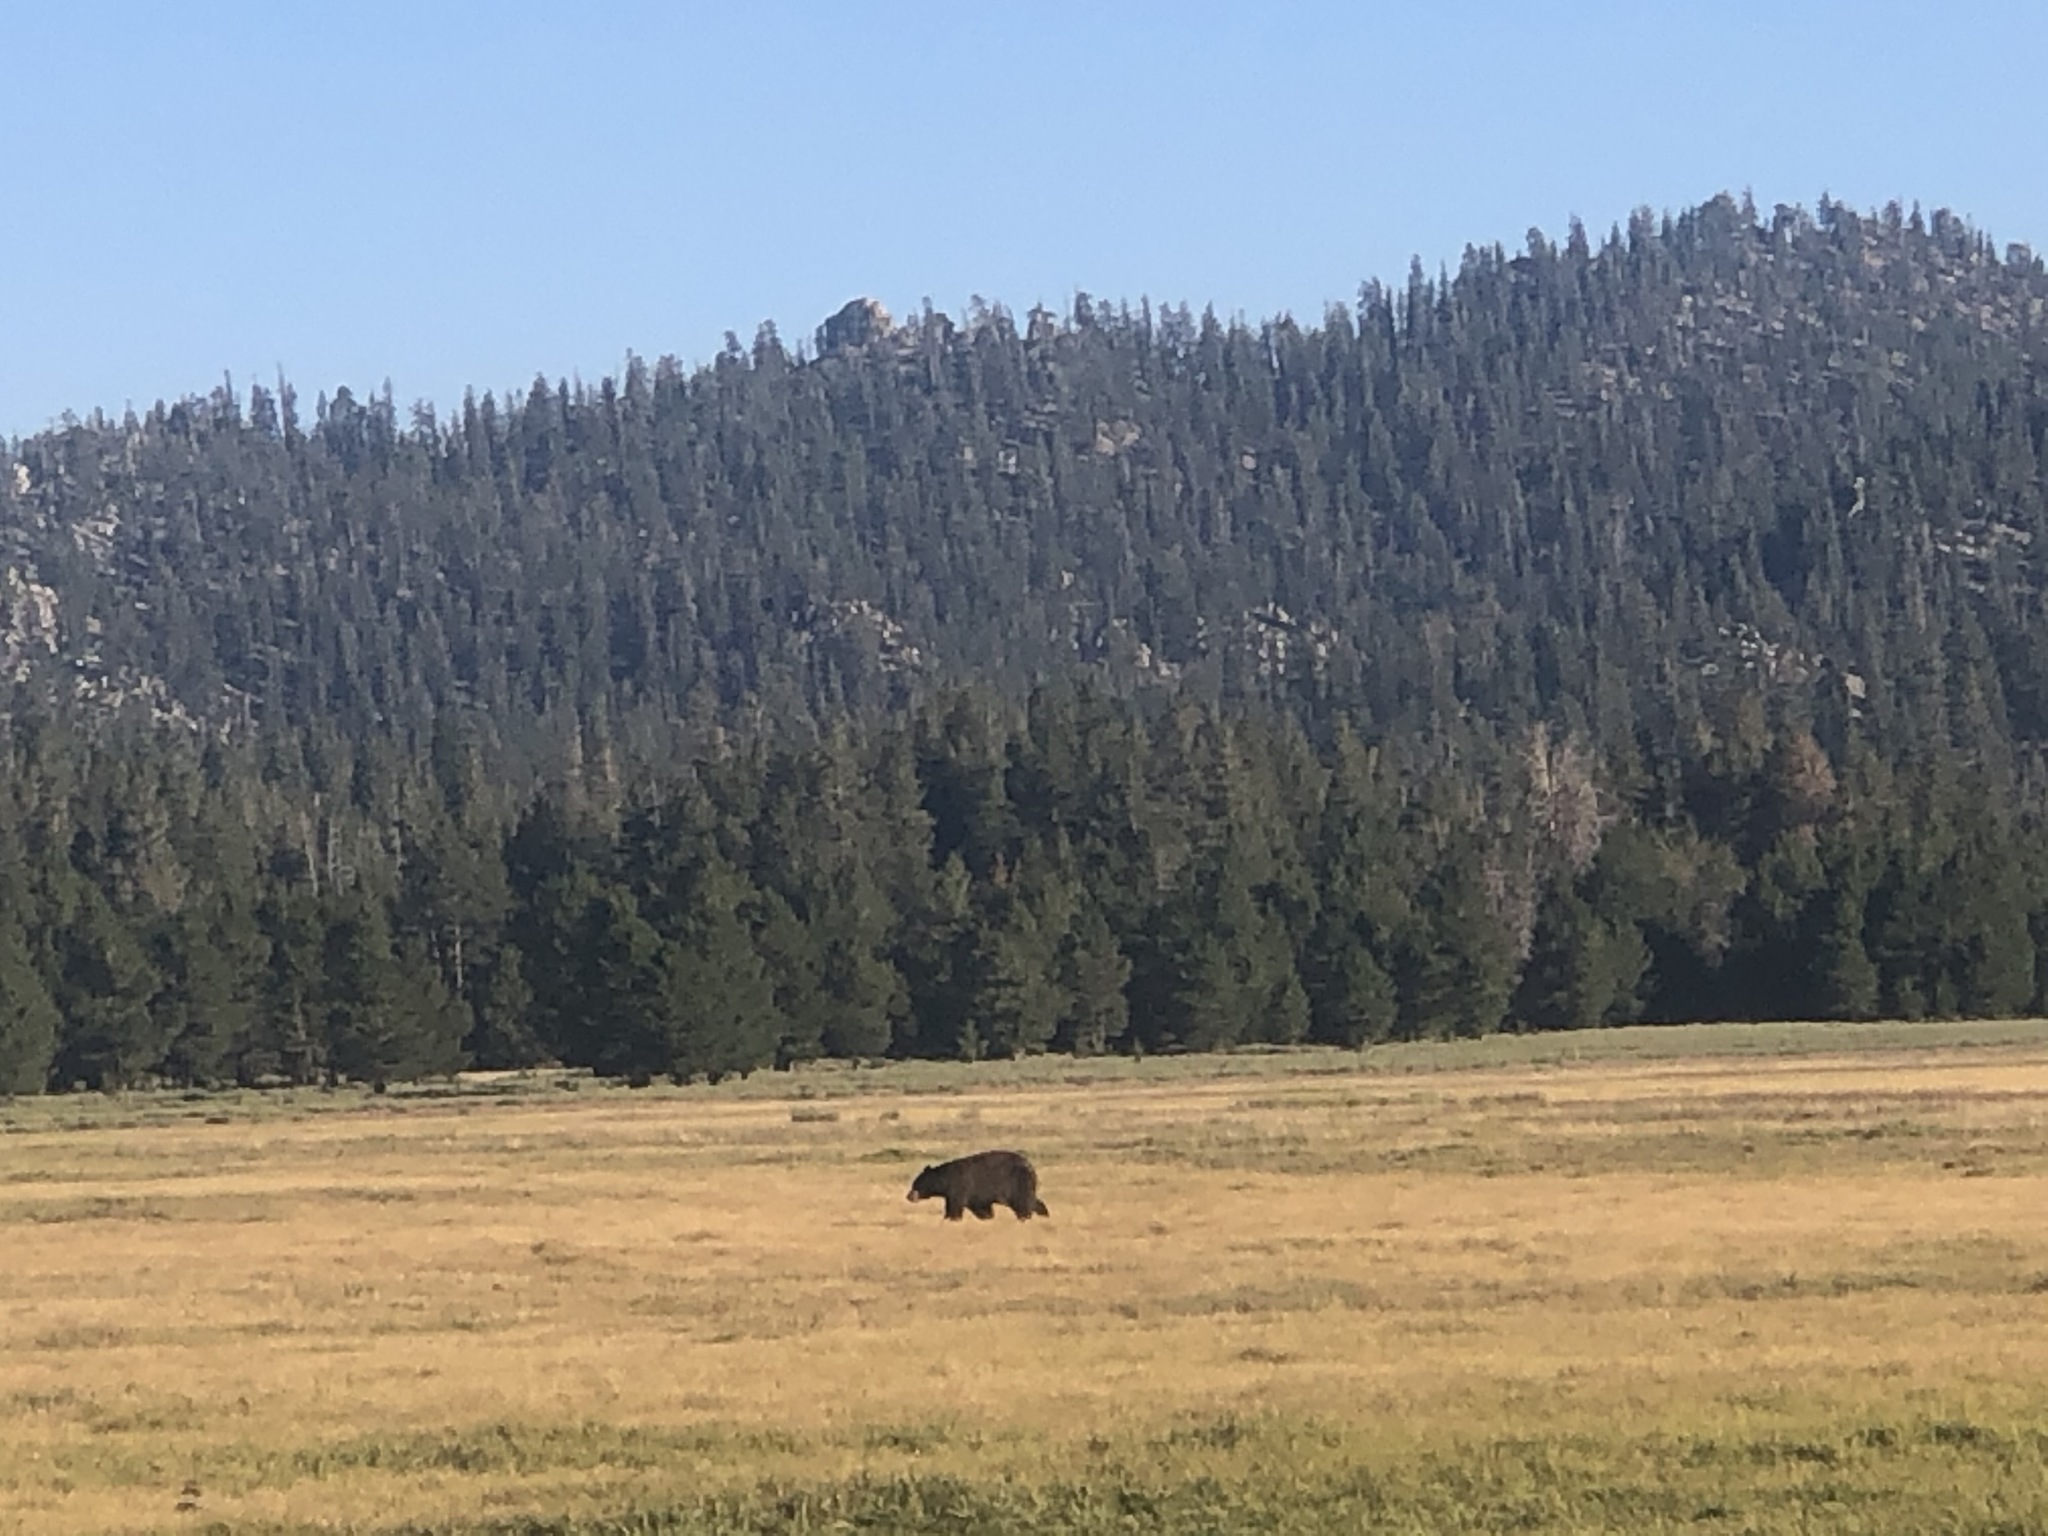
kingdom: Animalia
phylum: Chordata
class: Mammalia
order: Carnivora
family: Ursidae
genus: Ursus
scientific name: Ursus americanus
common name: American black bear
